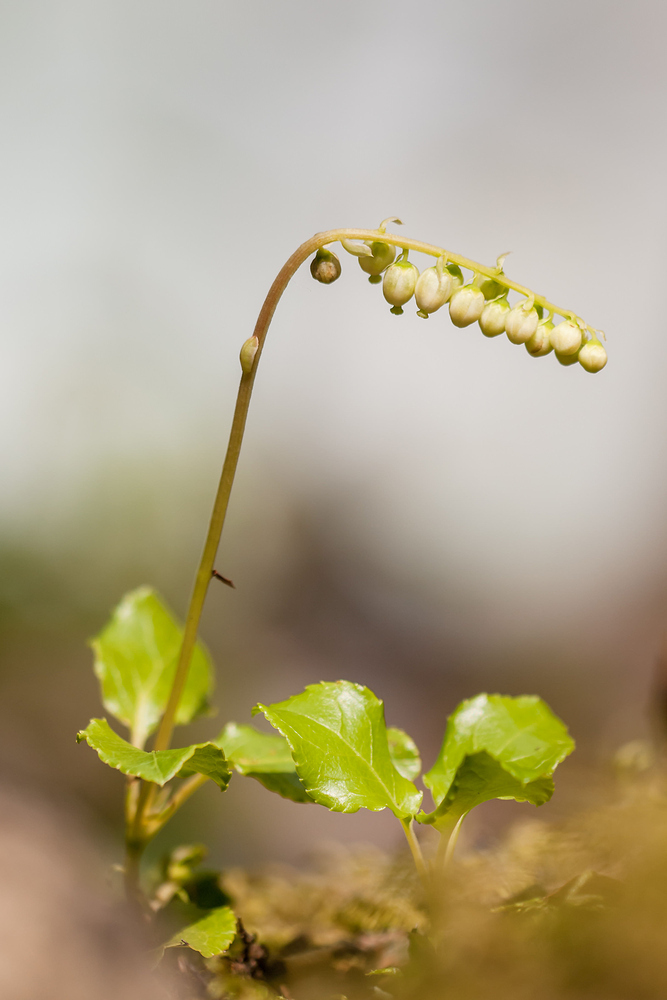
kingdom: Plantae
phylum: Tracheophyta
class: Magnoliopsida
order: Ericales
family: Ericaceae
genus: Orthilia
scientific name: Orthilia secunda
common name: One-sided orthilia
